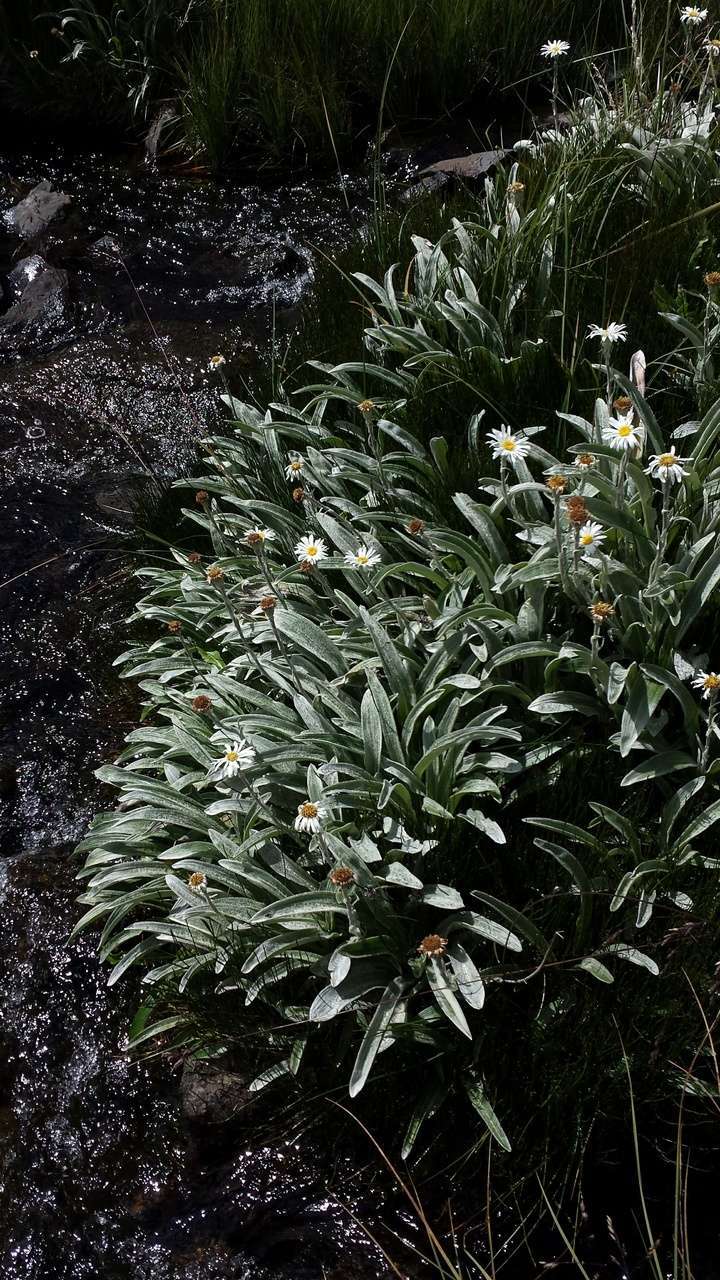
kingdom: Plantae
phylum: Tracheophyta
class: Magnoliopsida
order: Asterales
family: Asteraceae
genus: Celmisia
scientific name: Celmisia sericophylla
